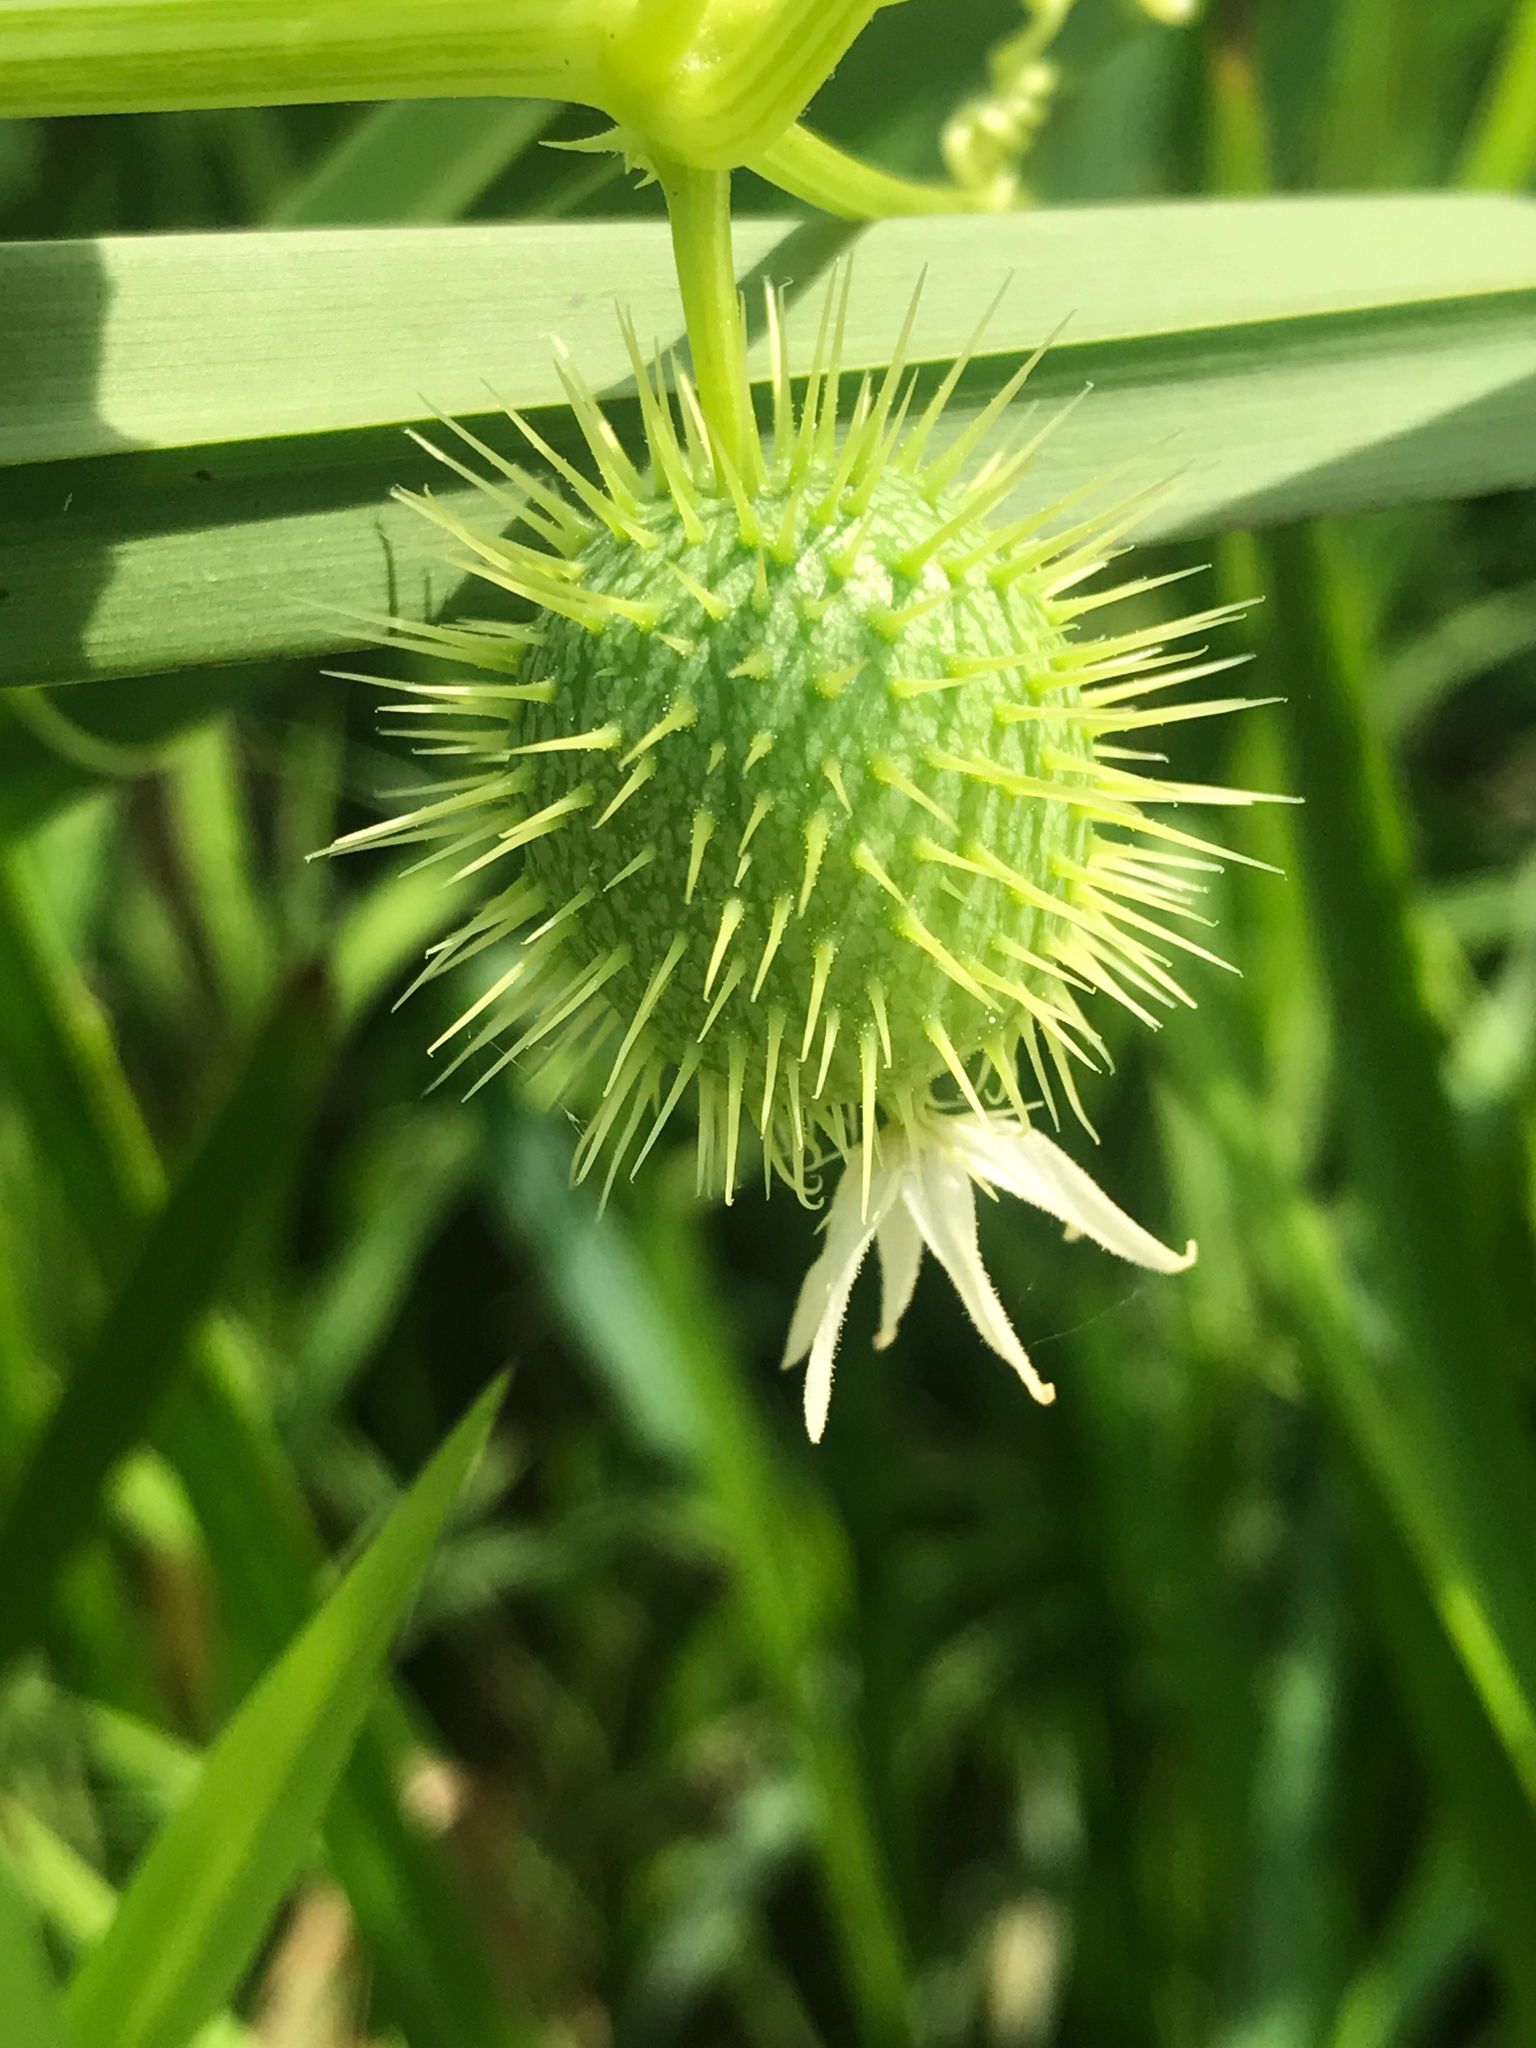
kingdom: Plantae
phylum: Tracheophyta
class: Magnoliopsida
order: Cucurbitales
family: Cucurbitaceae
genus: Echinocystis
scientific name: Echinocystis lobata
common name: Wild cucumber
